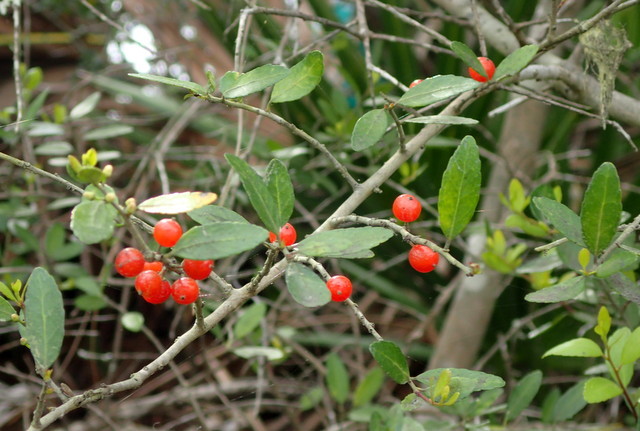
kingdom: Plantae
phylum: Tracheophyta
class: Magnoliopsida
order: Aquifoliales
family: Aquifoliaceae
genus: Ilex
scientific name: Ilex vomitoria
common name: Yaupon holly
